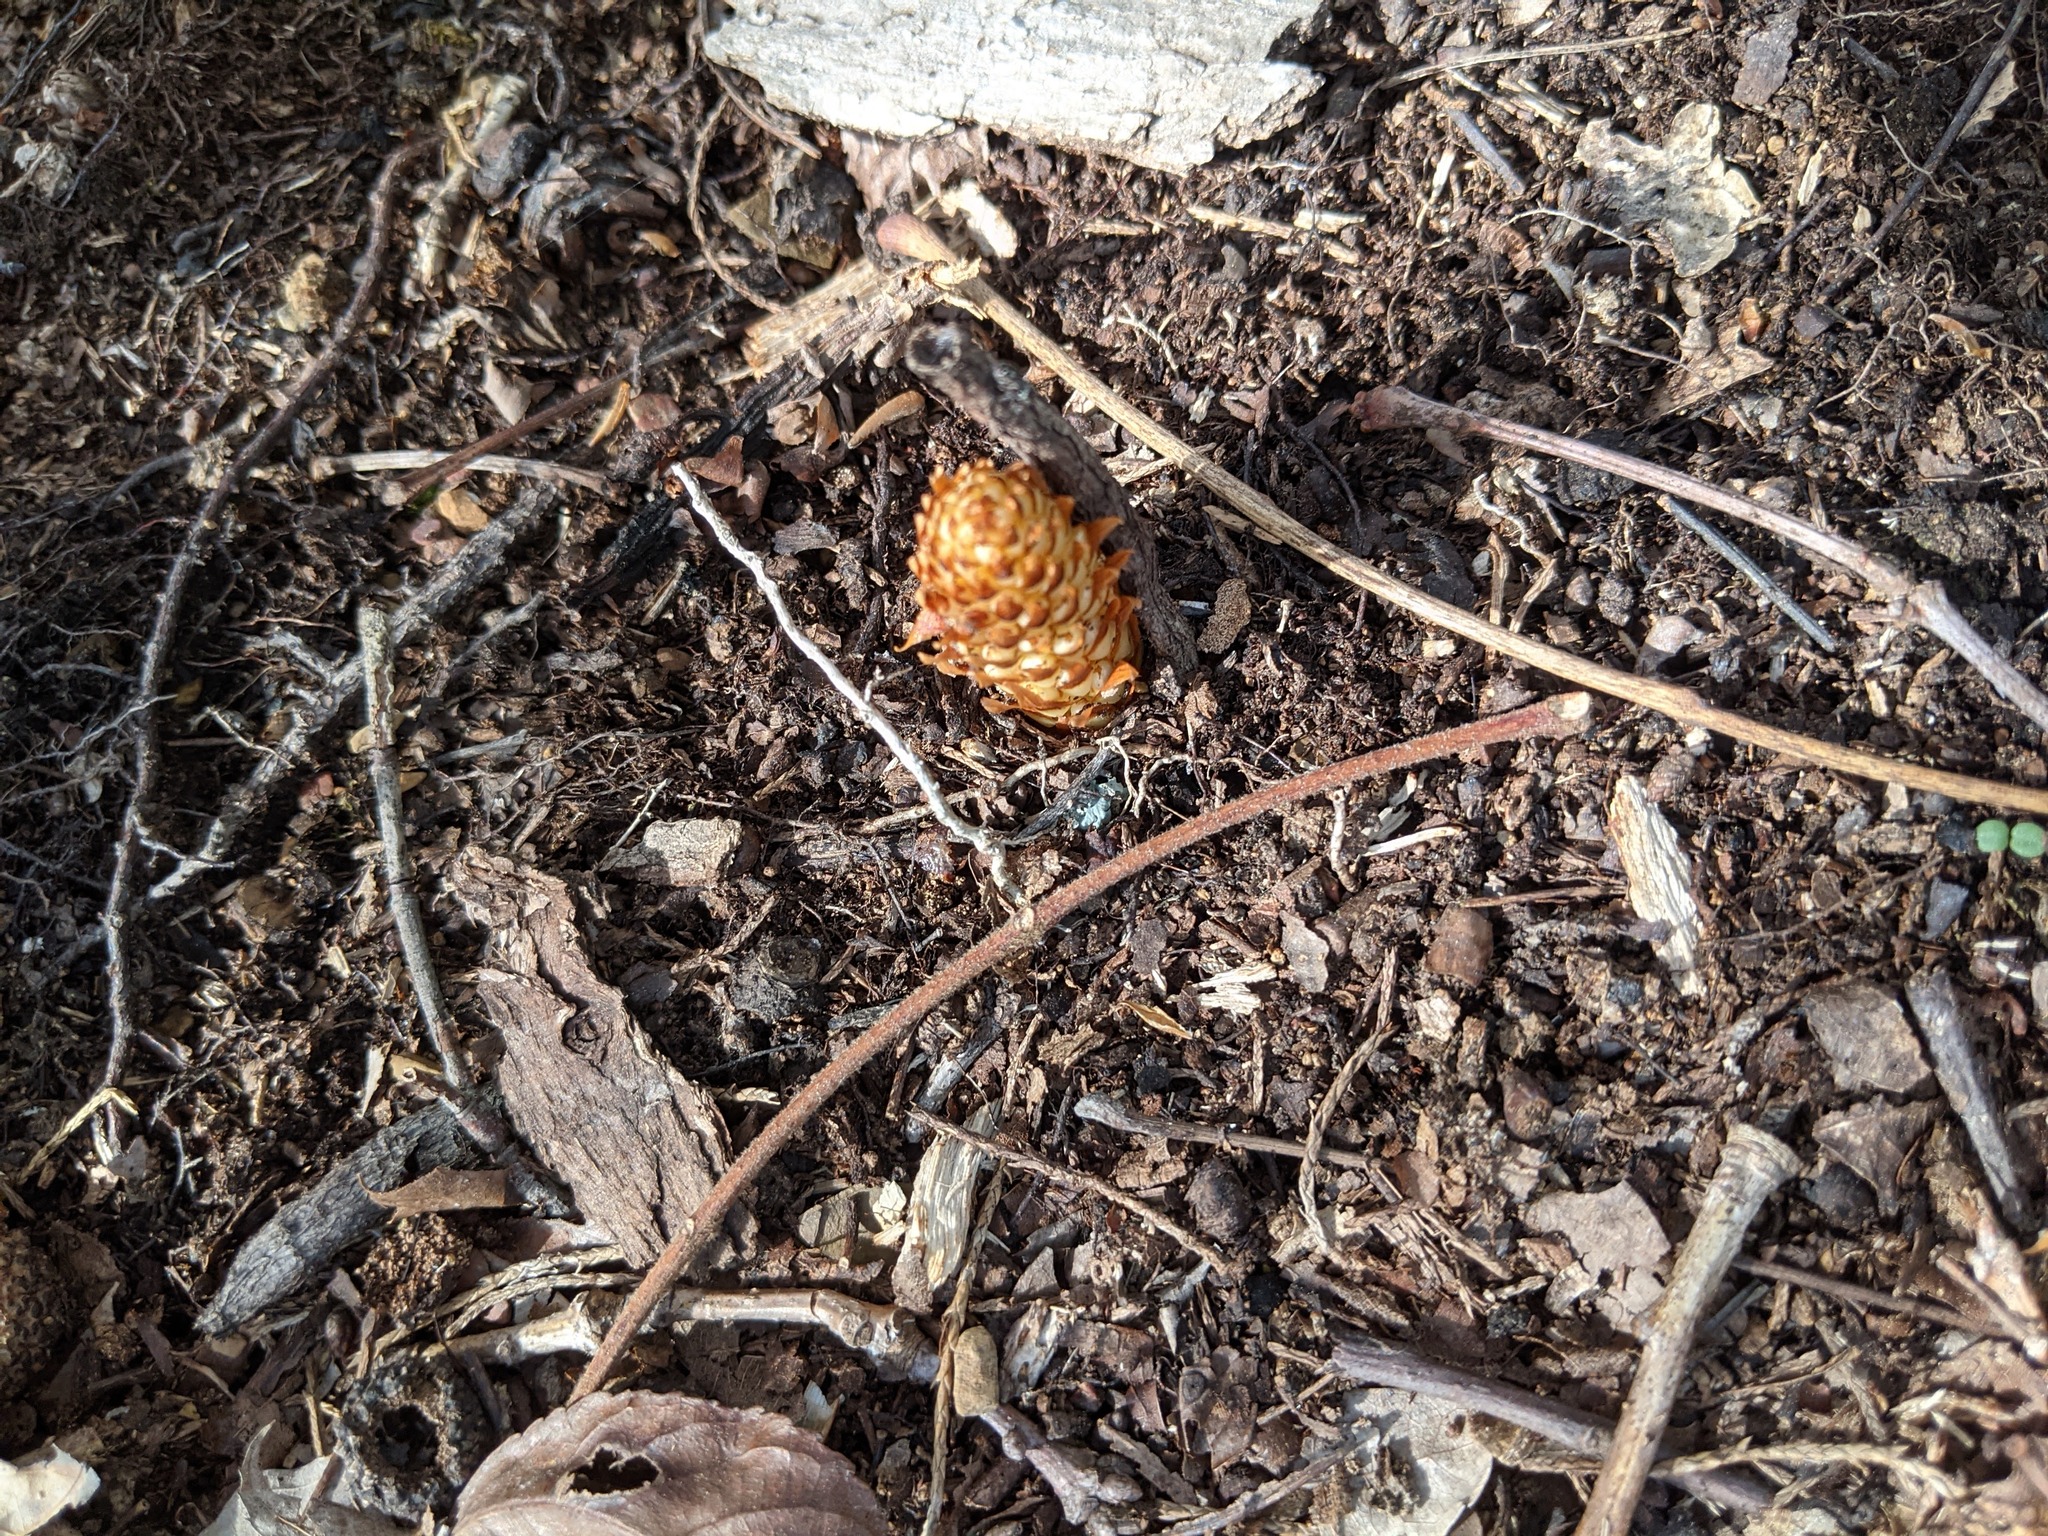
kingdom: Plantae
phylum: Tracheophyta
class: Magnoliopsida
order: Lamiales
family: Orobanchaceae
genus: Conopholis
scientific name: Conopholis americana
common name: American cancer-root
